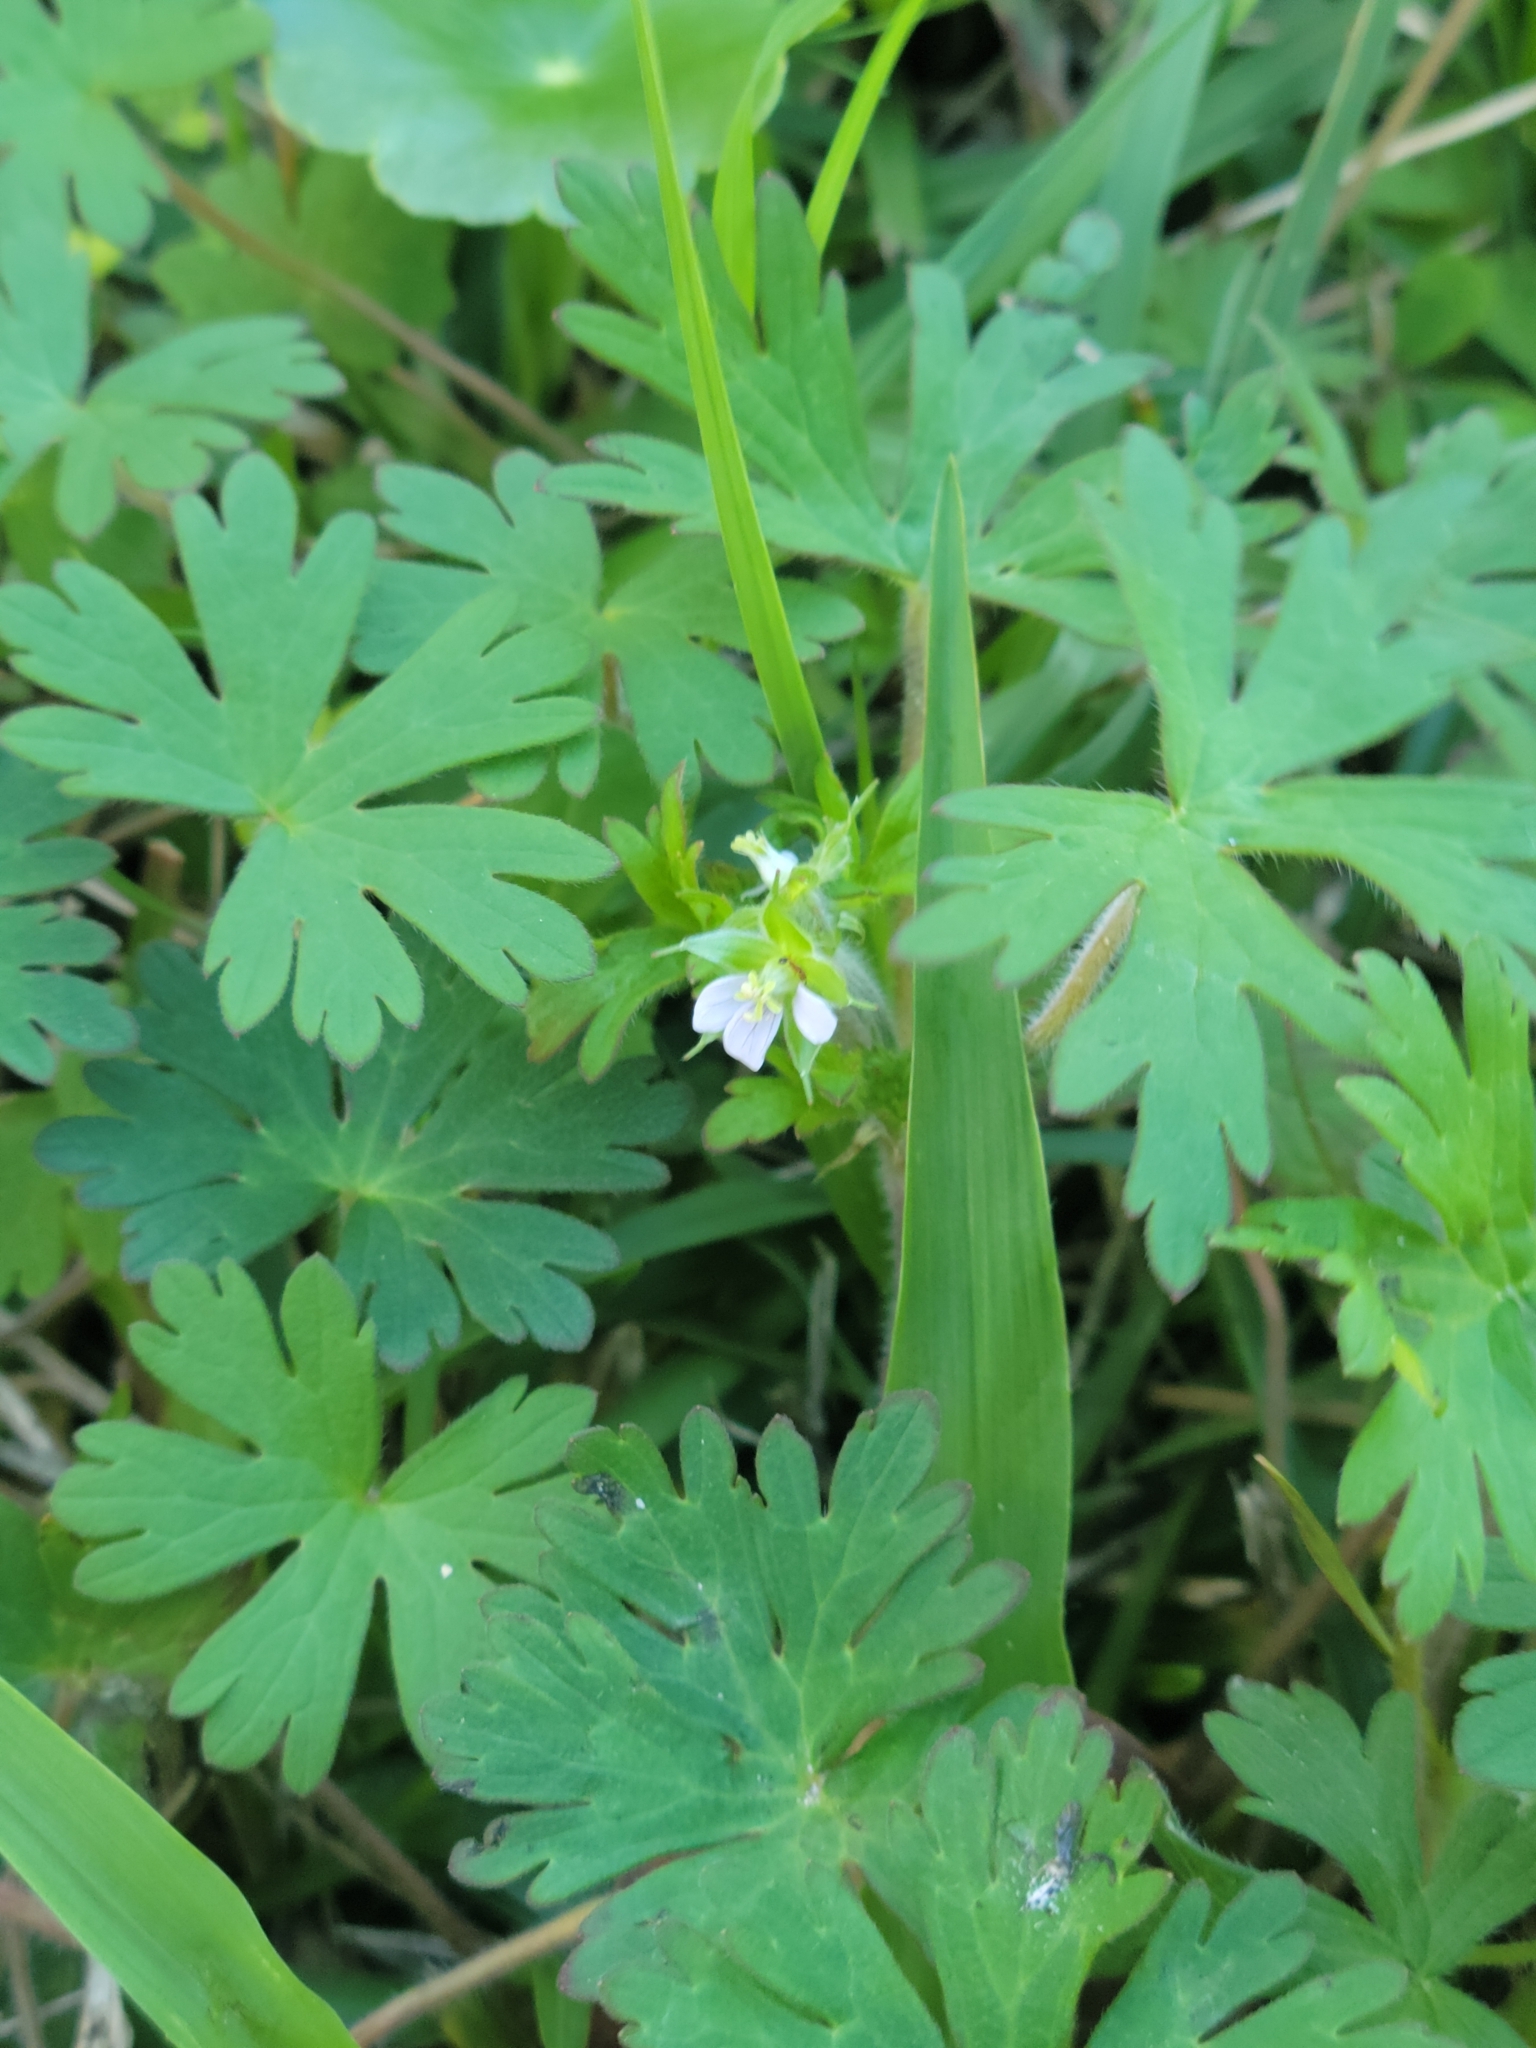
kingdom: Plantae
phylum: Tracheophyta
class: Magnoliopsida
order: Geraniales
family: Geraniaceae
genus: Geranium
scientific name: Geranium carolinianum
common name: Carolina crane's-bill
